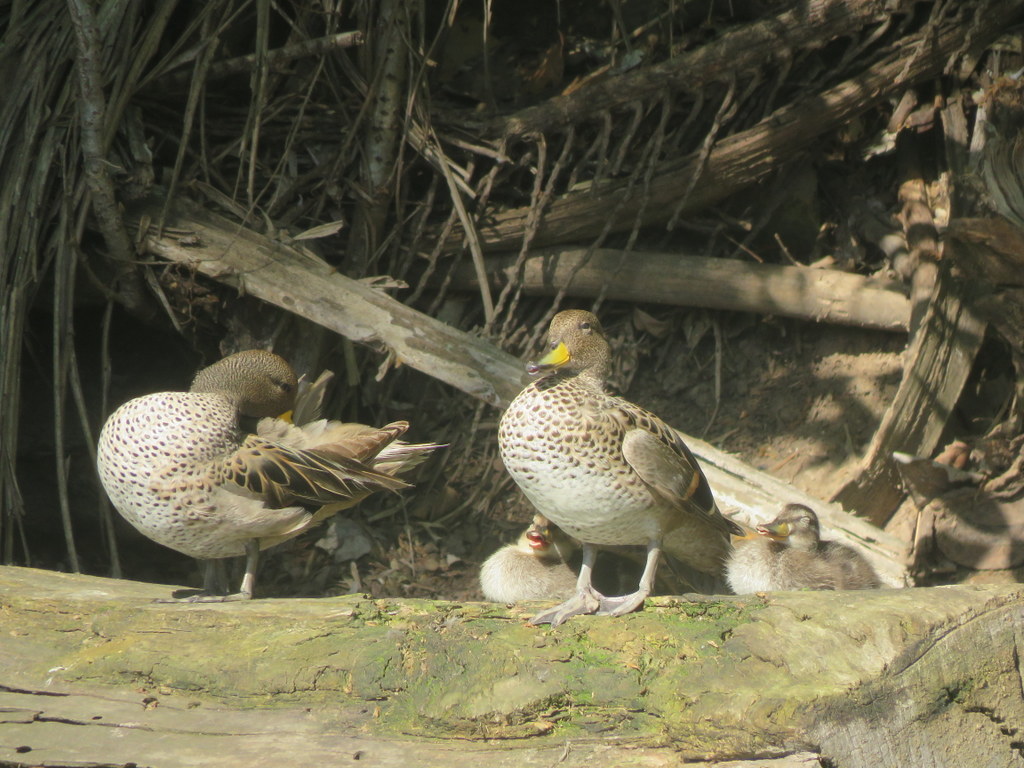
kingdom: Animalia
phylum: Chordata
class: Aves
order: Anseriformes
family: Anatidae
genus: Anas
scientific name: Anas flavirostris
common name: Yellow-billed teal
